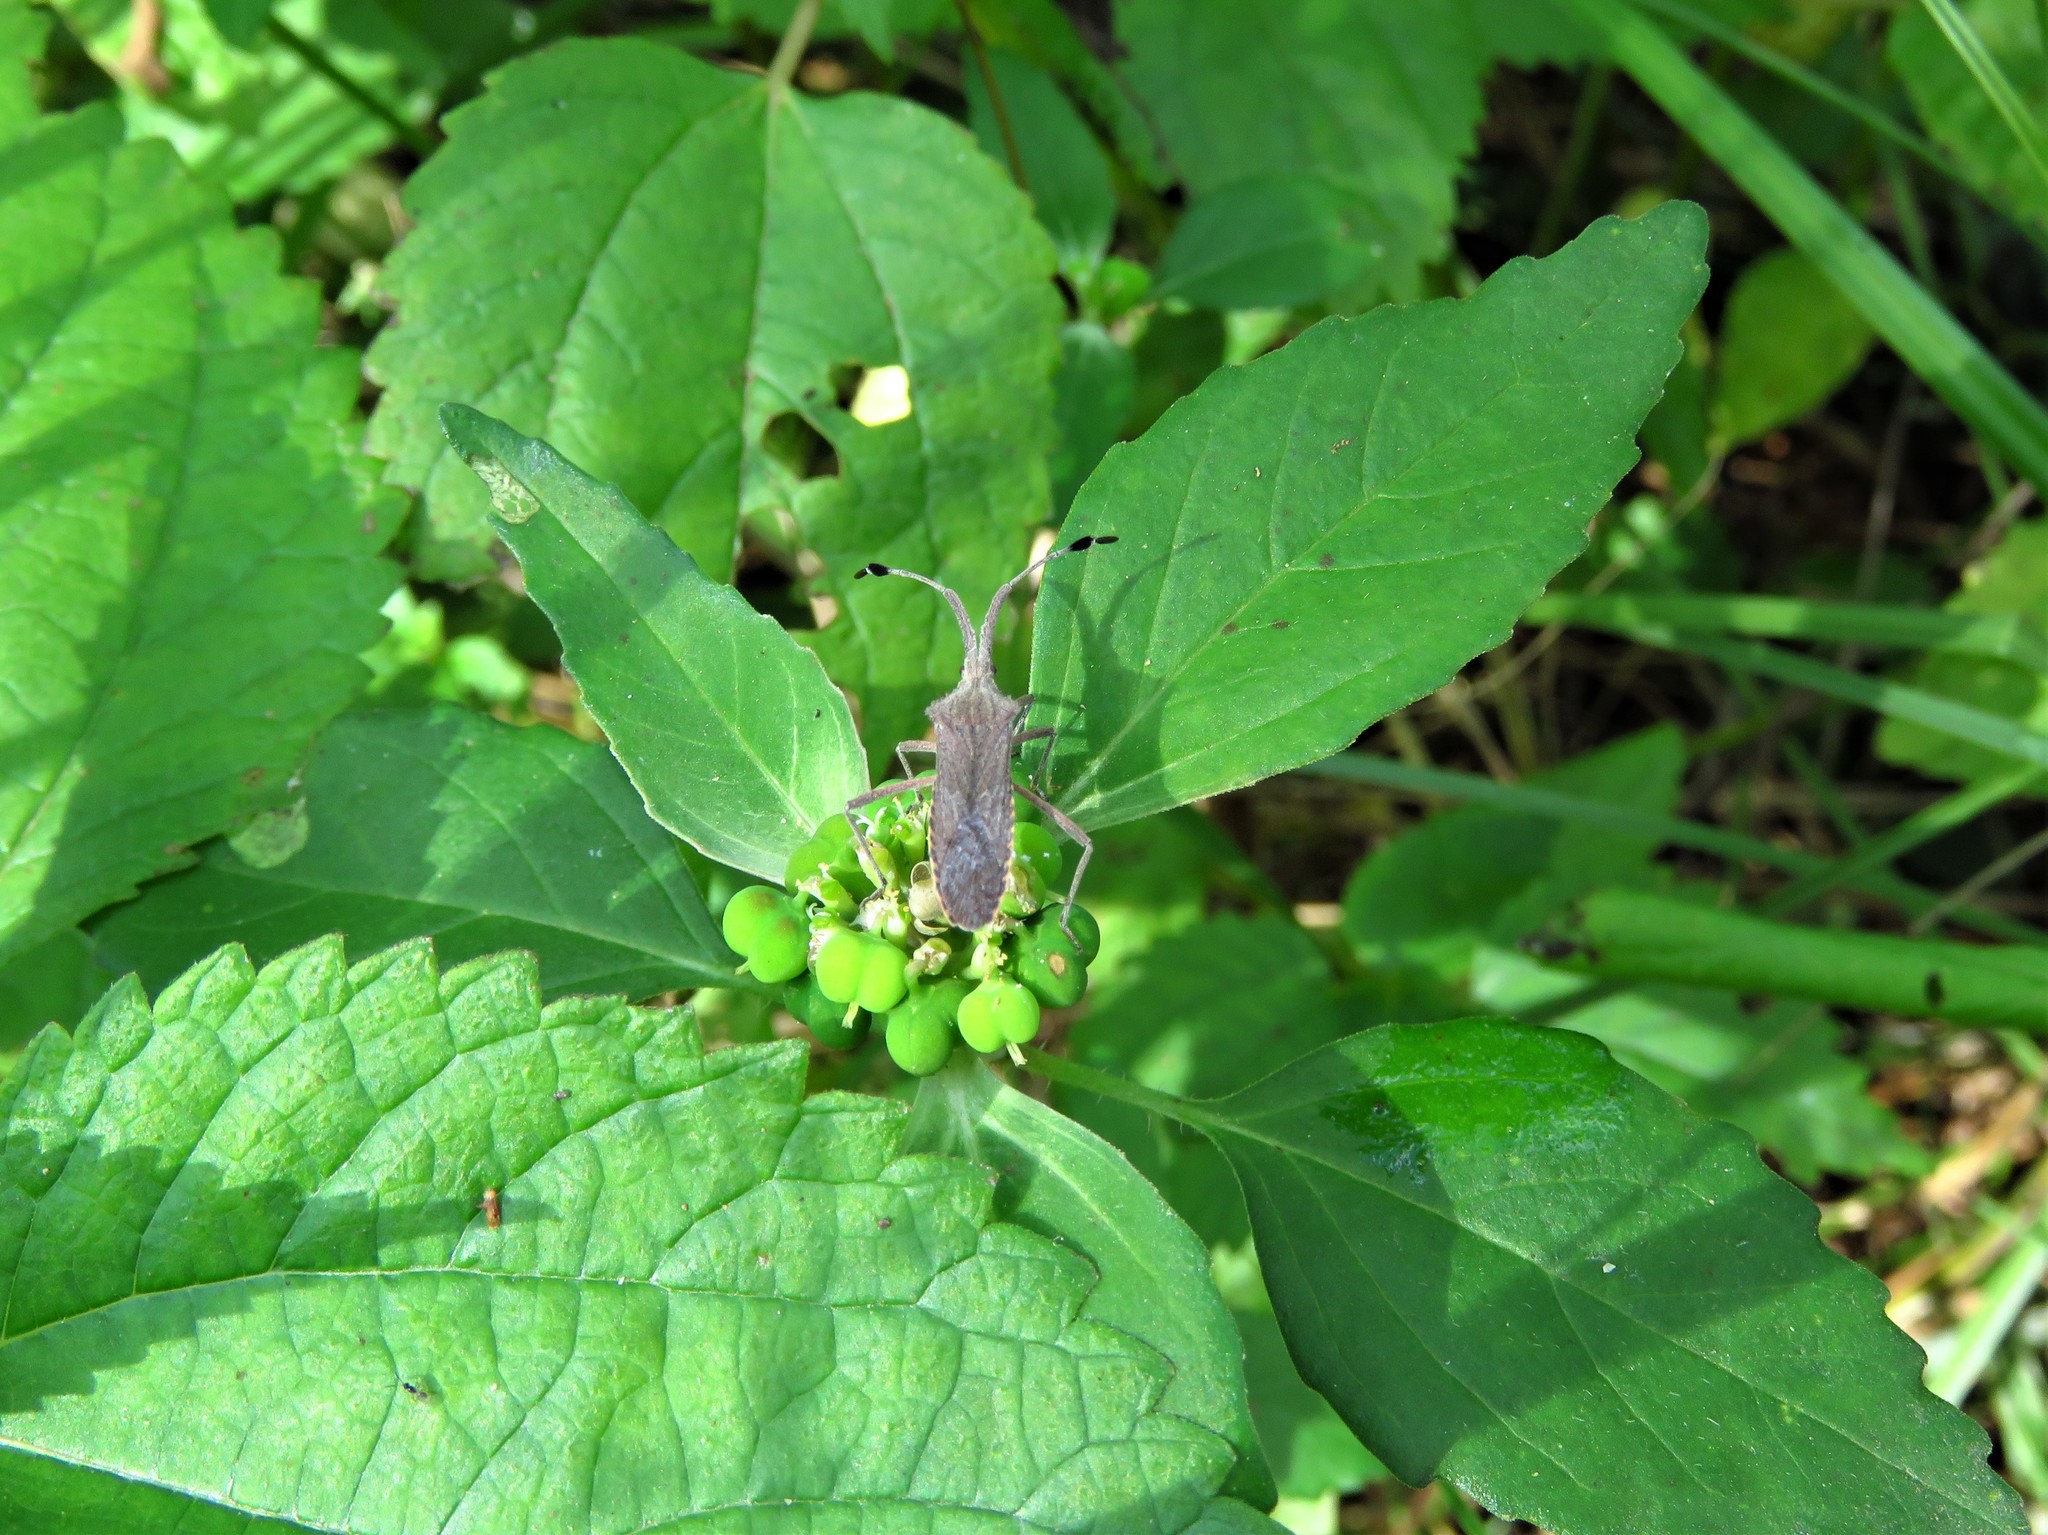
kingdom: Plantae
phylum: Tracheophyta
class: Magnoliopsida
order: Malpighiales
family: Euphorbiaceae
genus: Euphorbia
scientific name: Euphorbia dentata
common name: Dentate spurge
